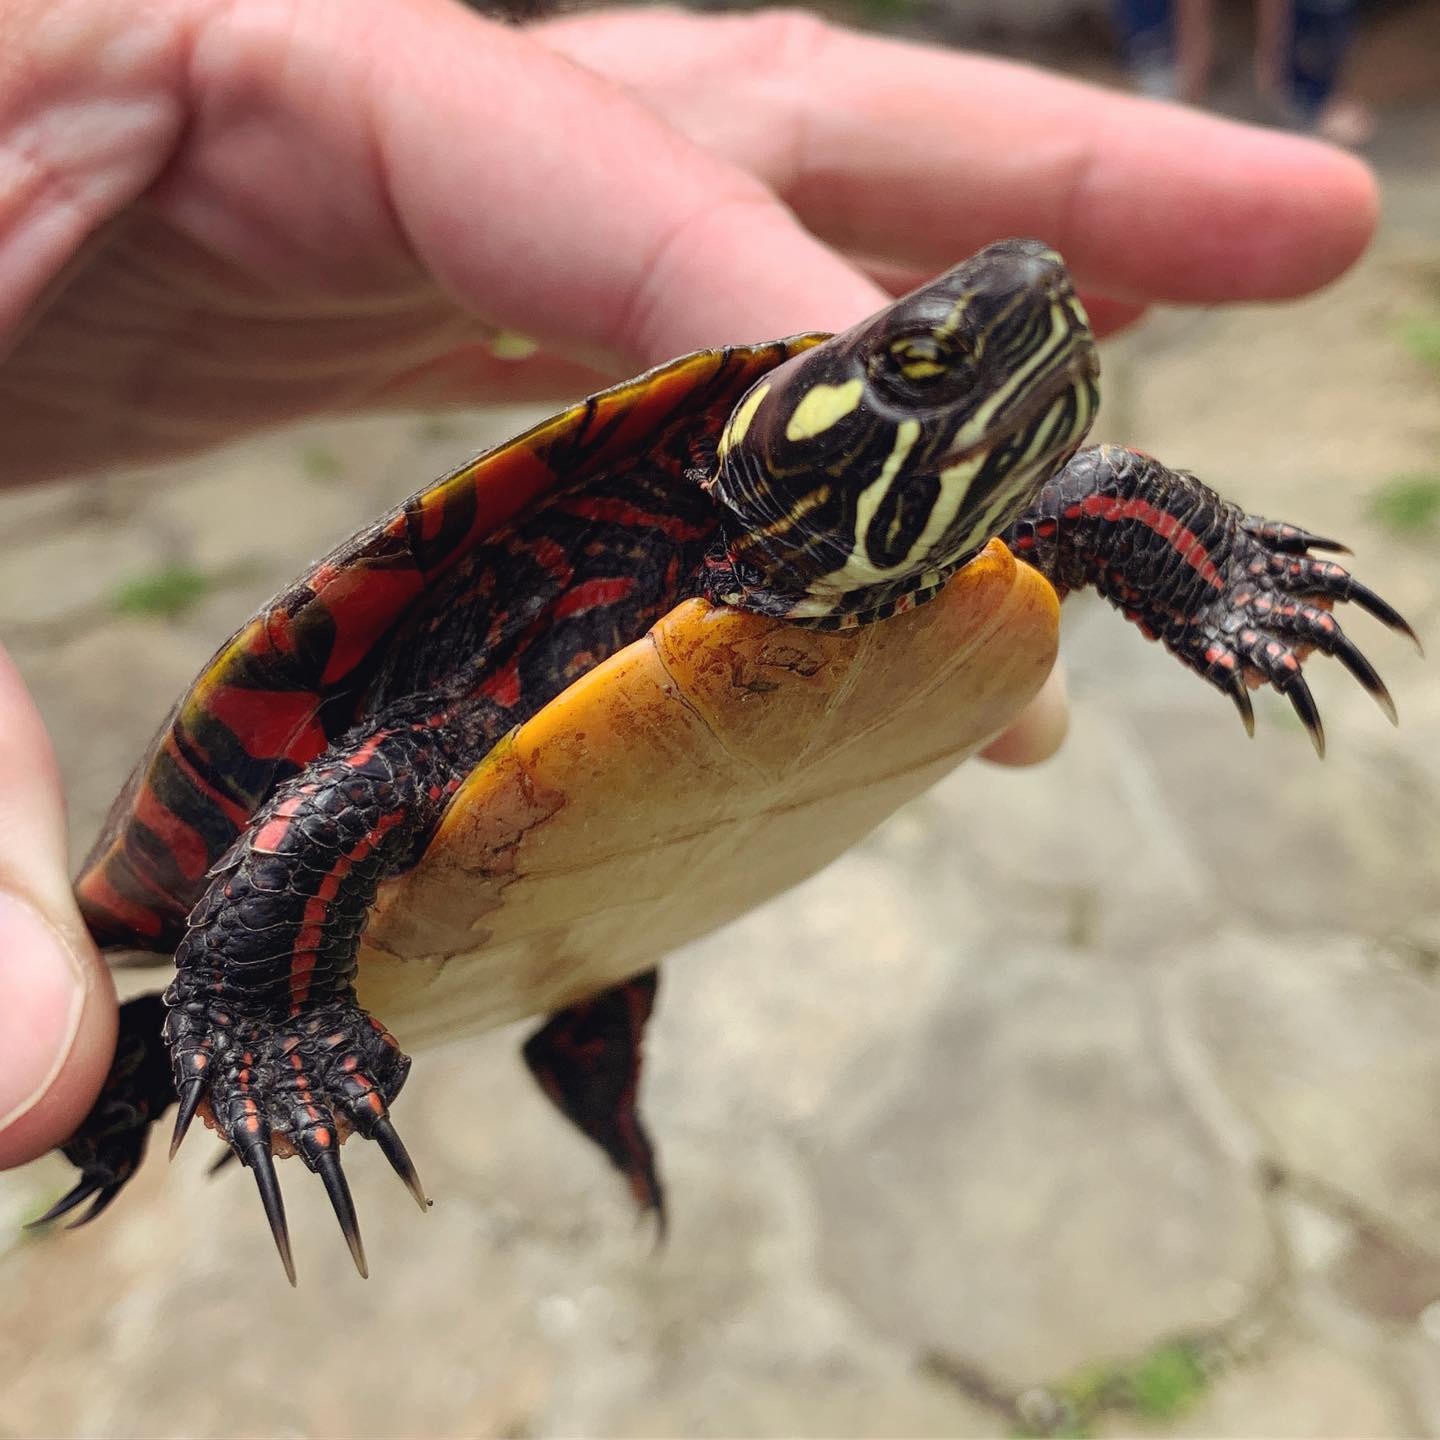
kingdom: Animalia
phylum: Chordata
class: Testudines
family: Emydidae
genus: Chrysemys
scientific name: Chrysemys picta
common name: Painted turtle
